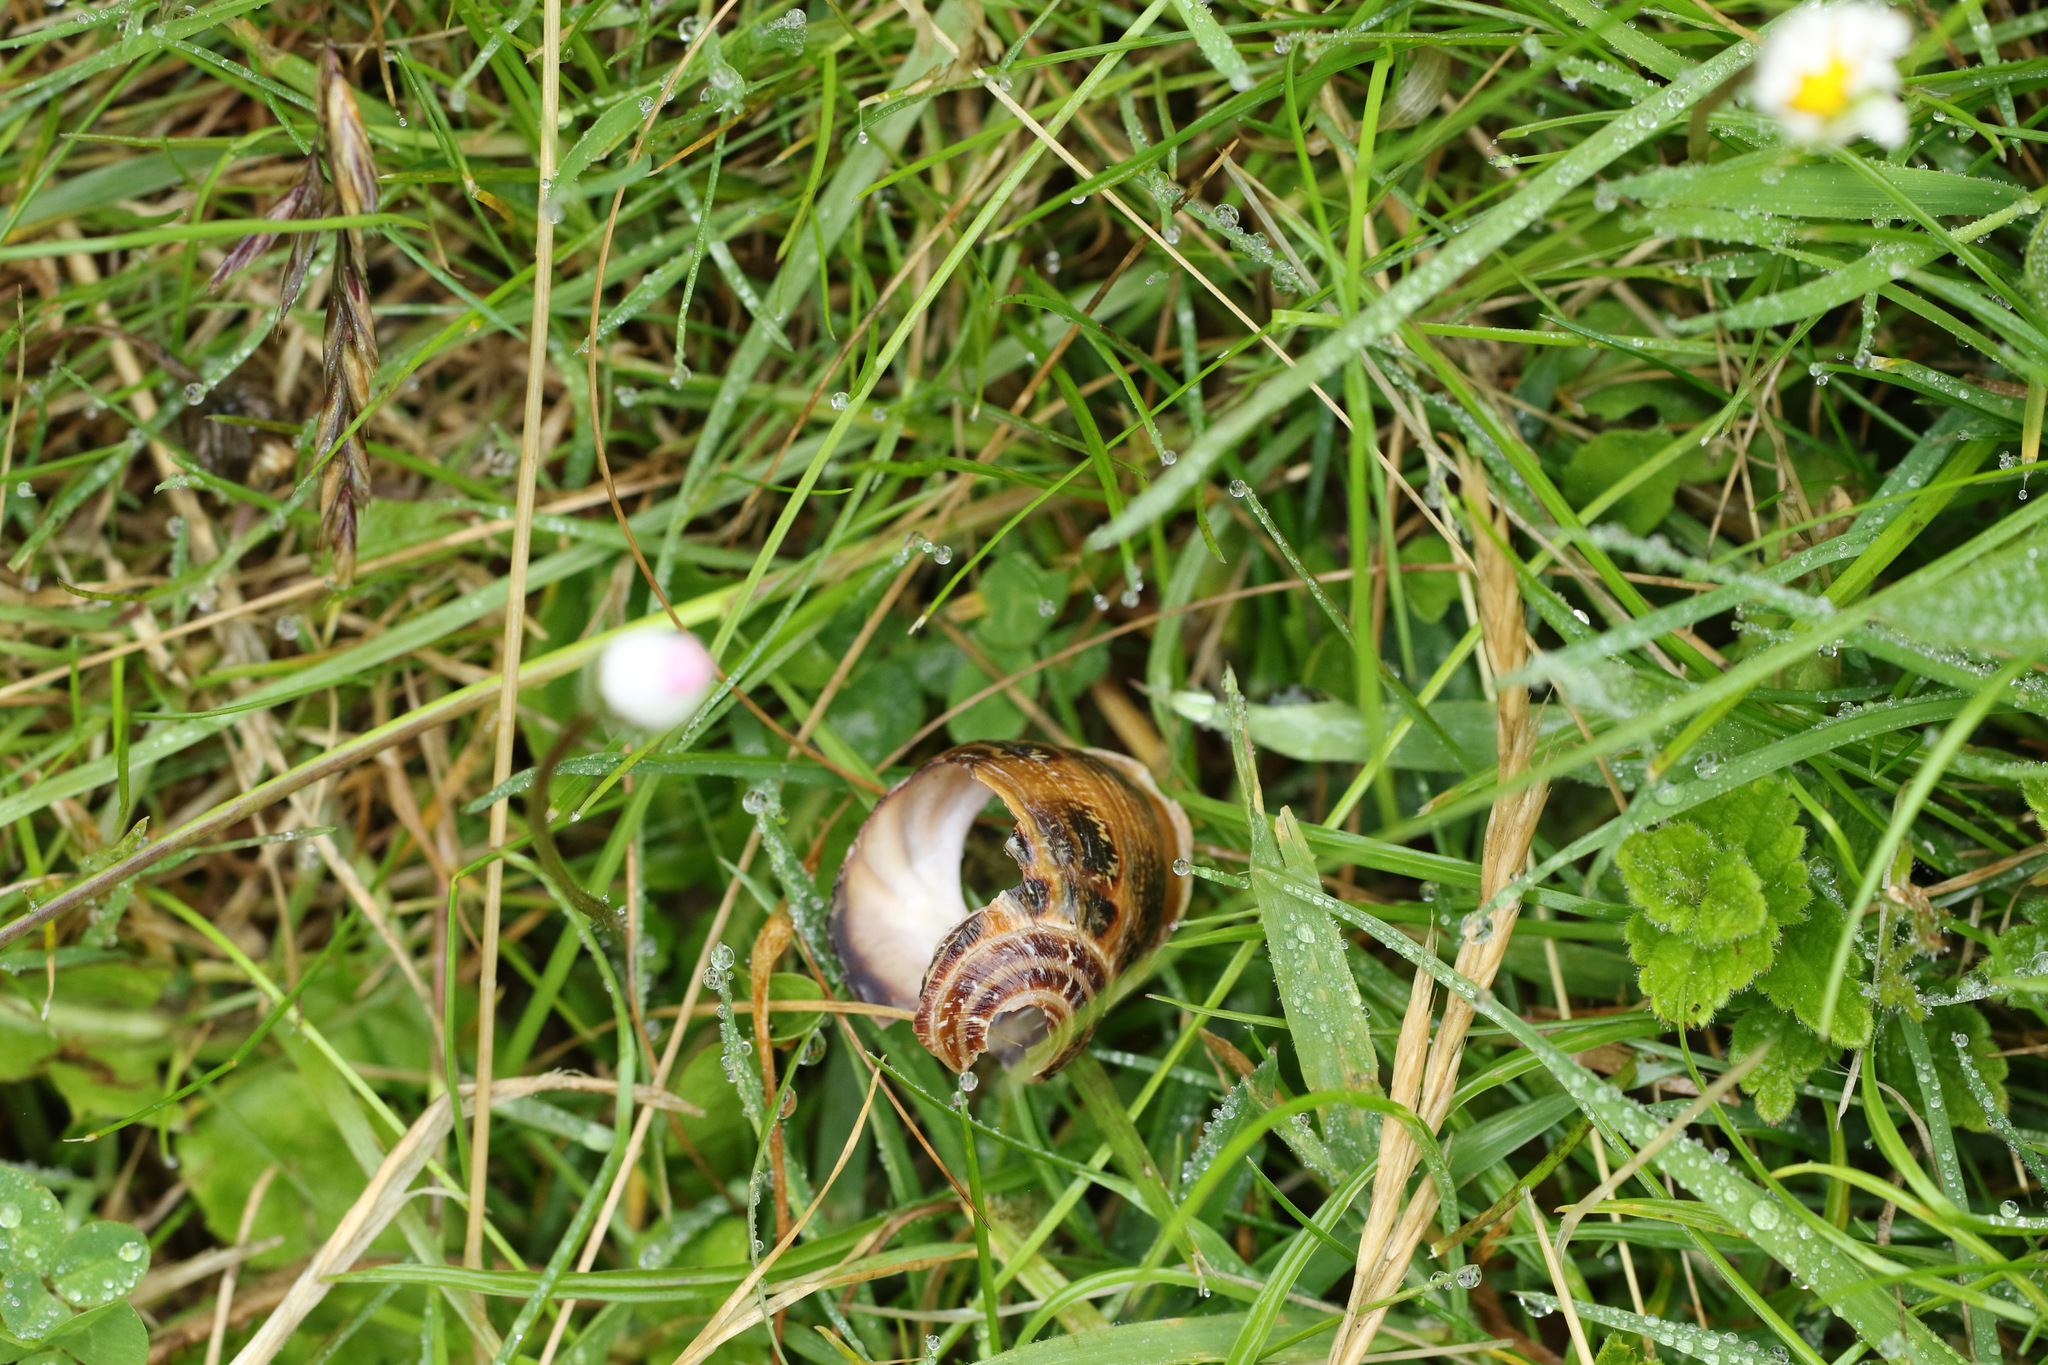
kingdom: Animalia
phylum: Mollusca
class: Gastropoda
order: Stylommatophora
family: Helicidae
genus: Cornu
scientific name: Cornu aspersum
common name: Brown garden snail
